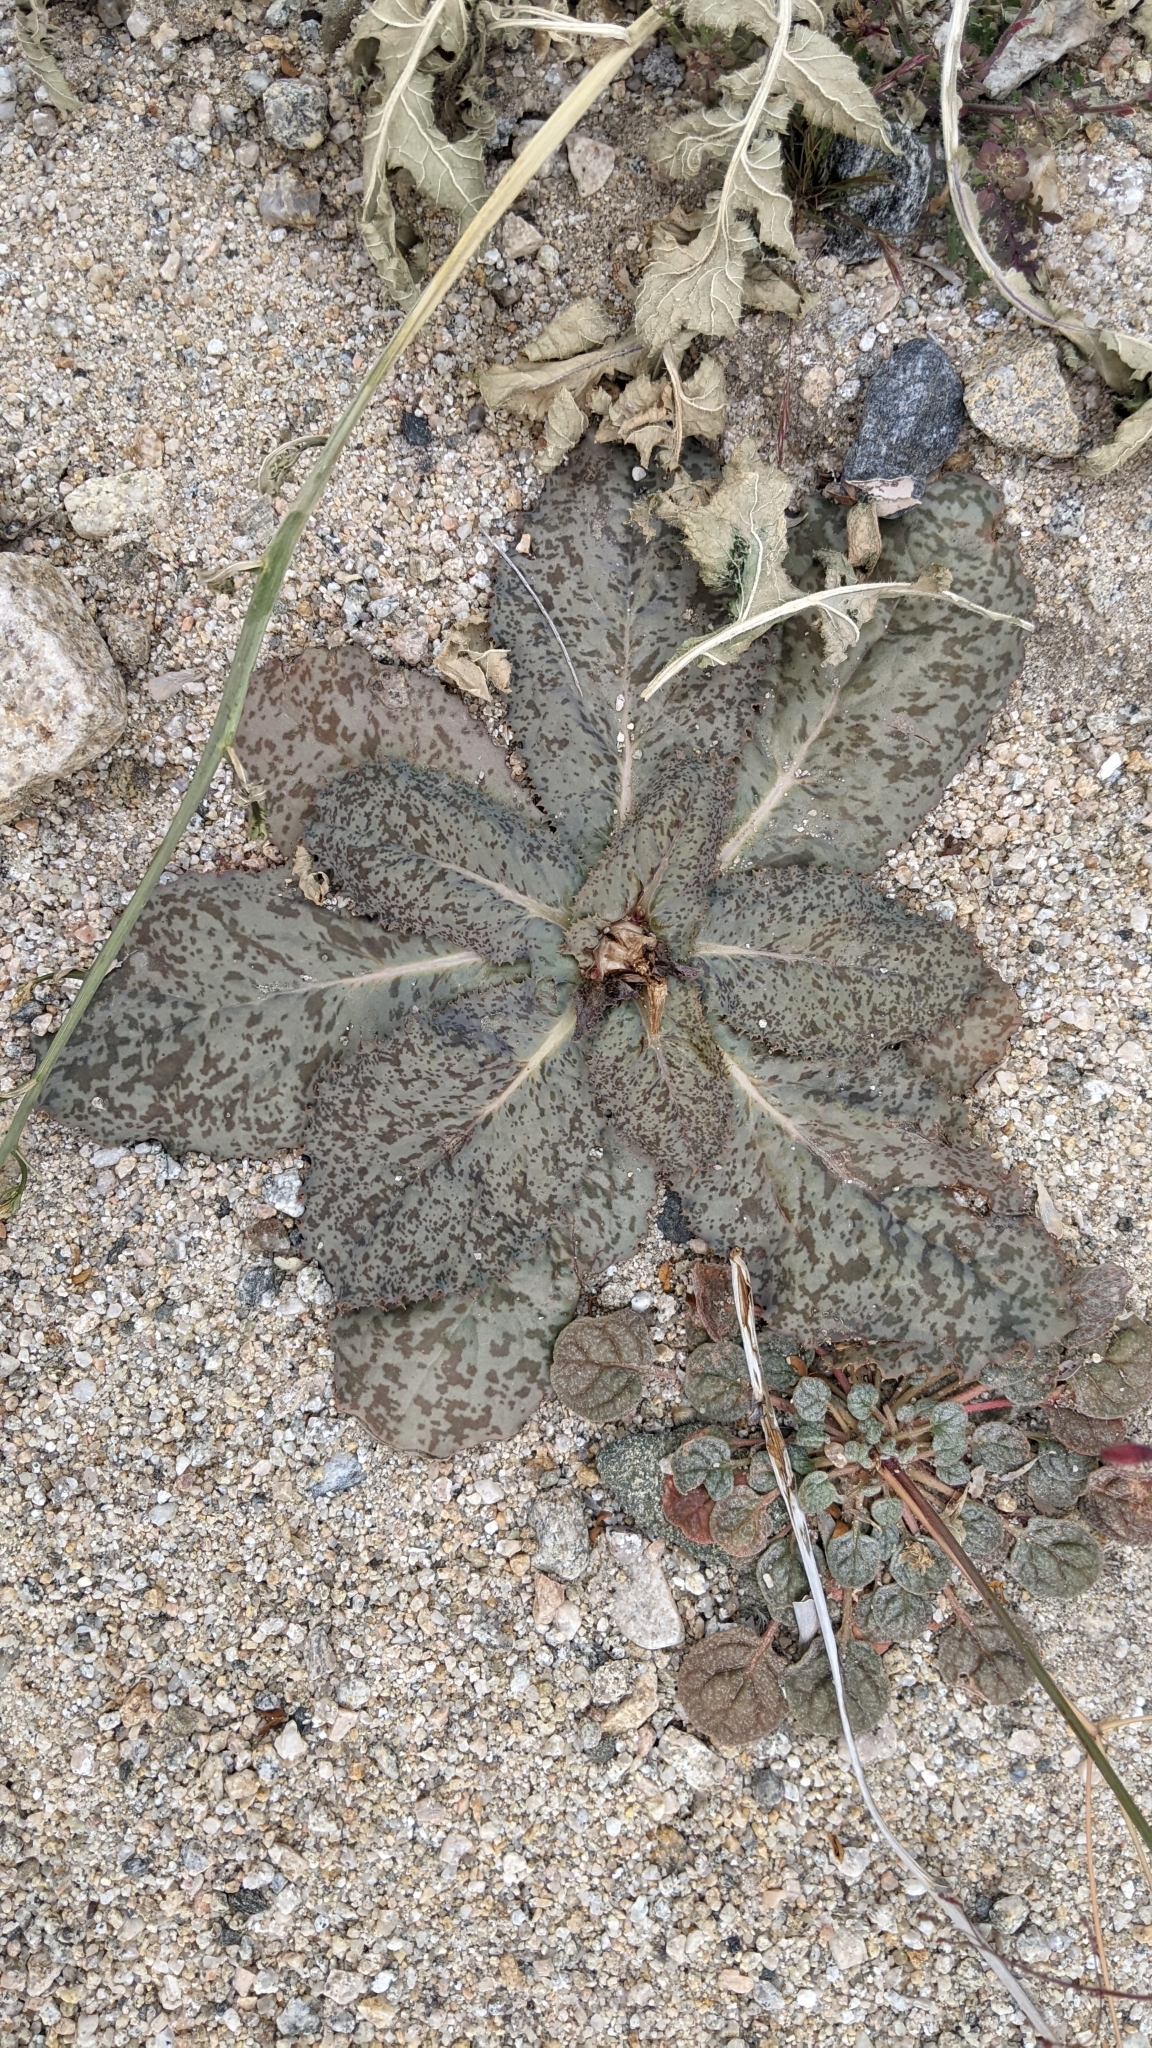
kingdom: Plantae
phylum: Tracheophyta
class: Magnoliopsida
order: Asterales
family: Asteraceae
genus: Atrichoseris
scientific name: Atrichoseris platyphylla
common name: Tobaccoweed
